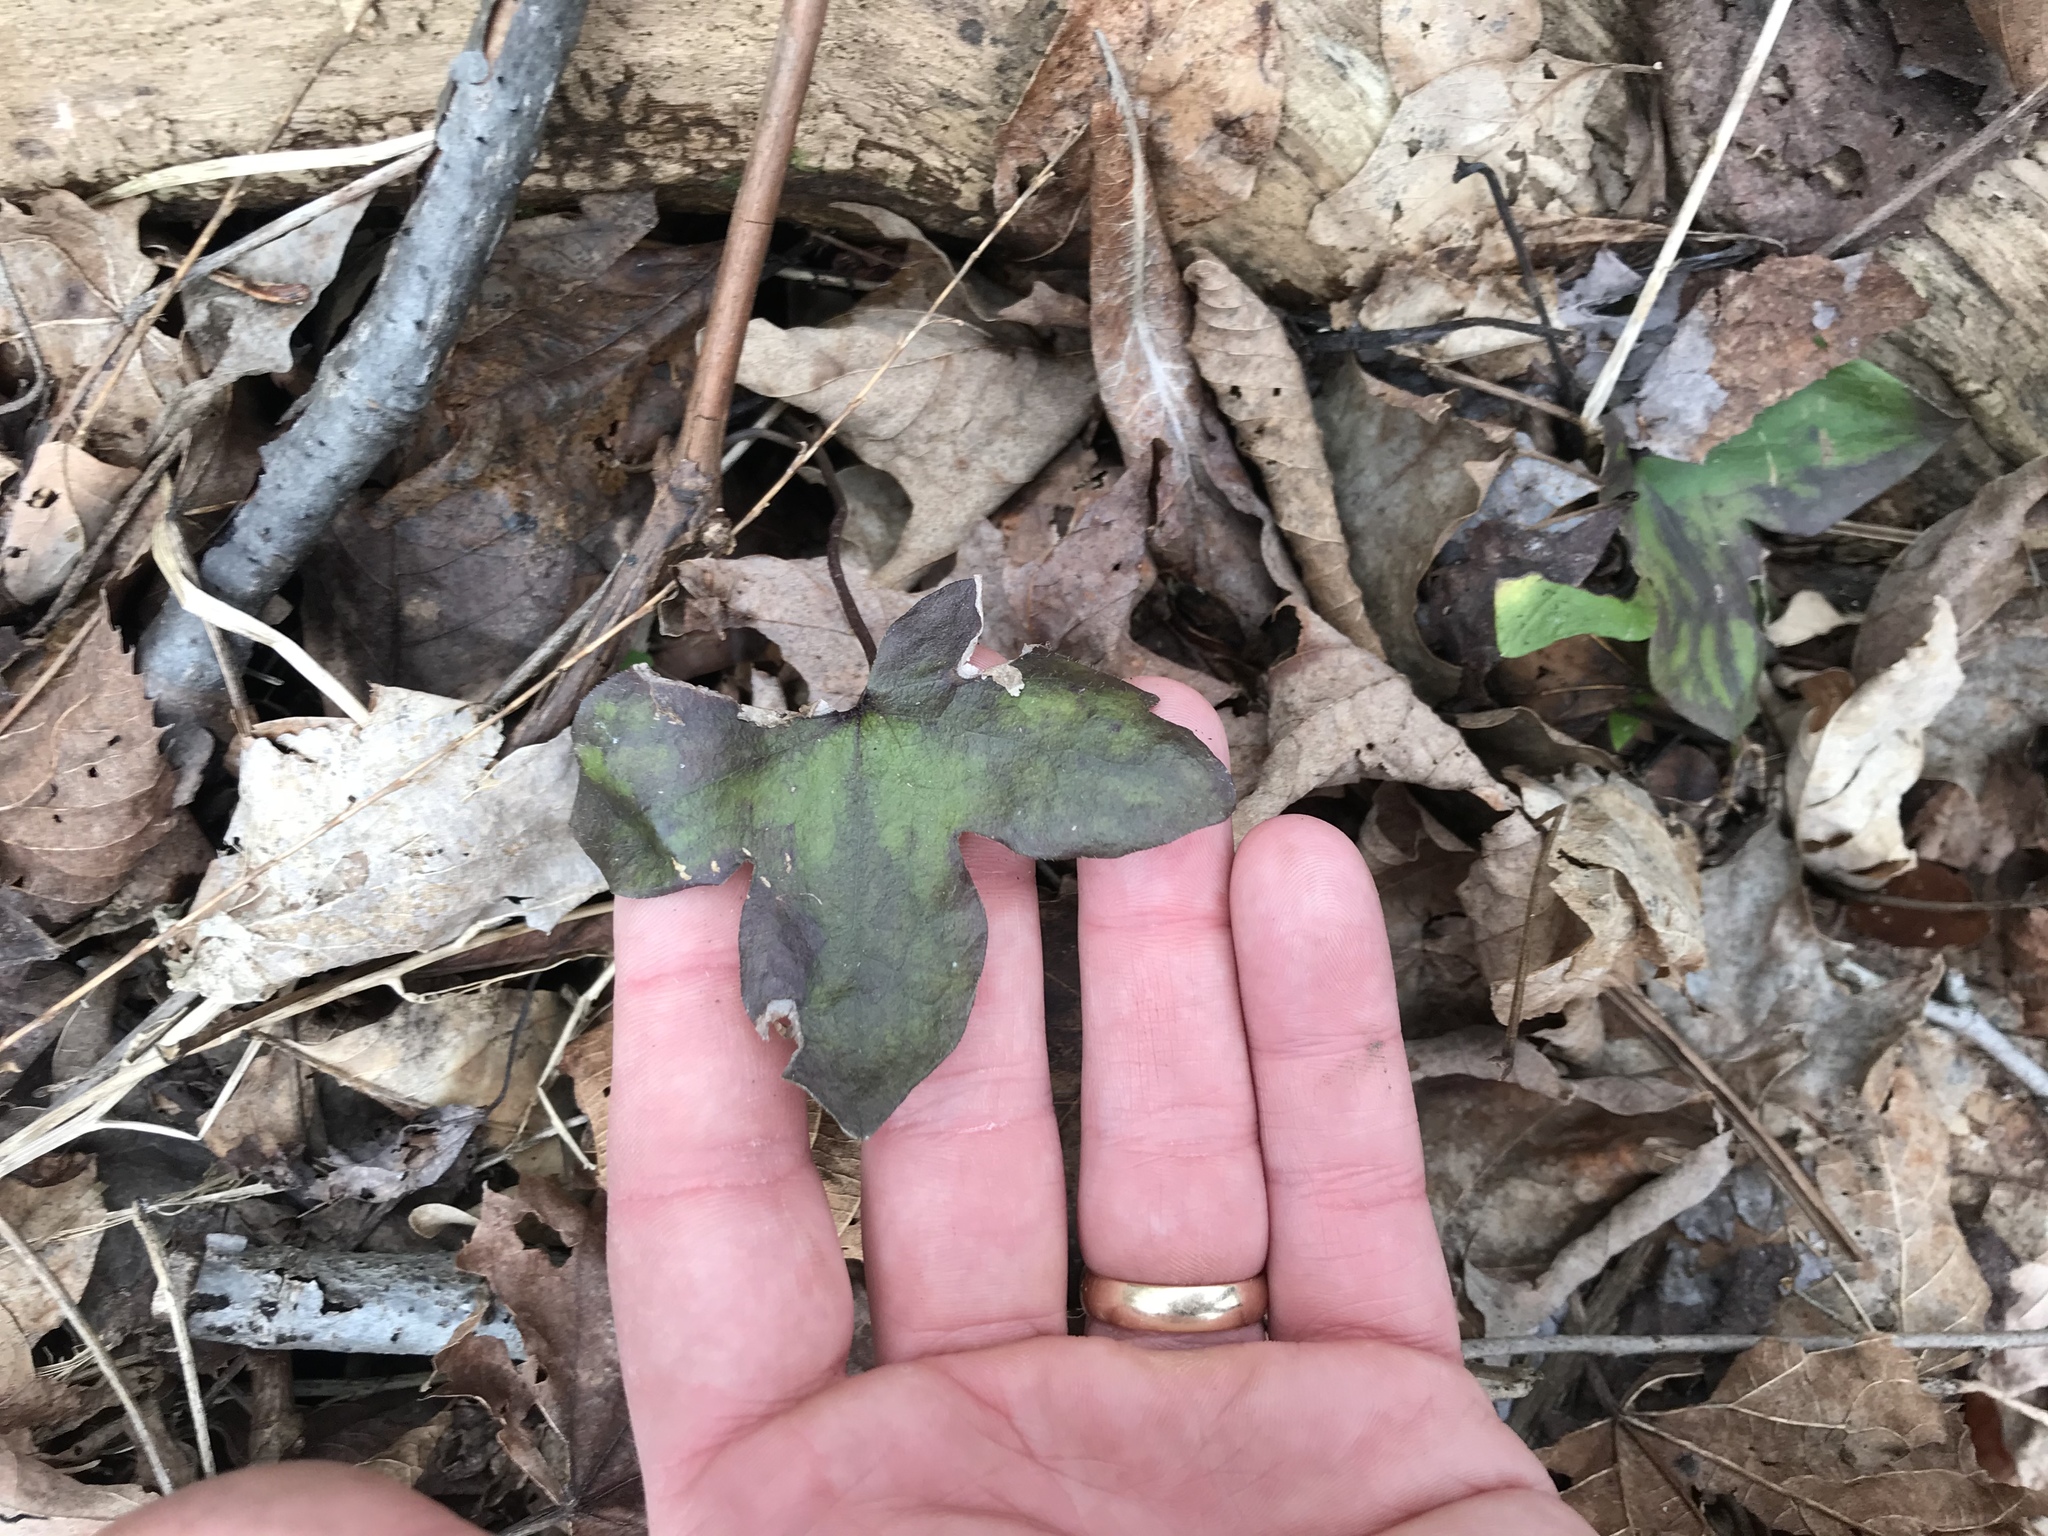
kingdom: Plantae
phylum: Tracheophyta
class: Magnoliopsida
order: Ranunculales
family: Ranunculaceae
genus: Hepatica
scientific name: Hepatica acutiloba
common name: Sharp-lobed hepatica
